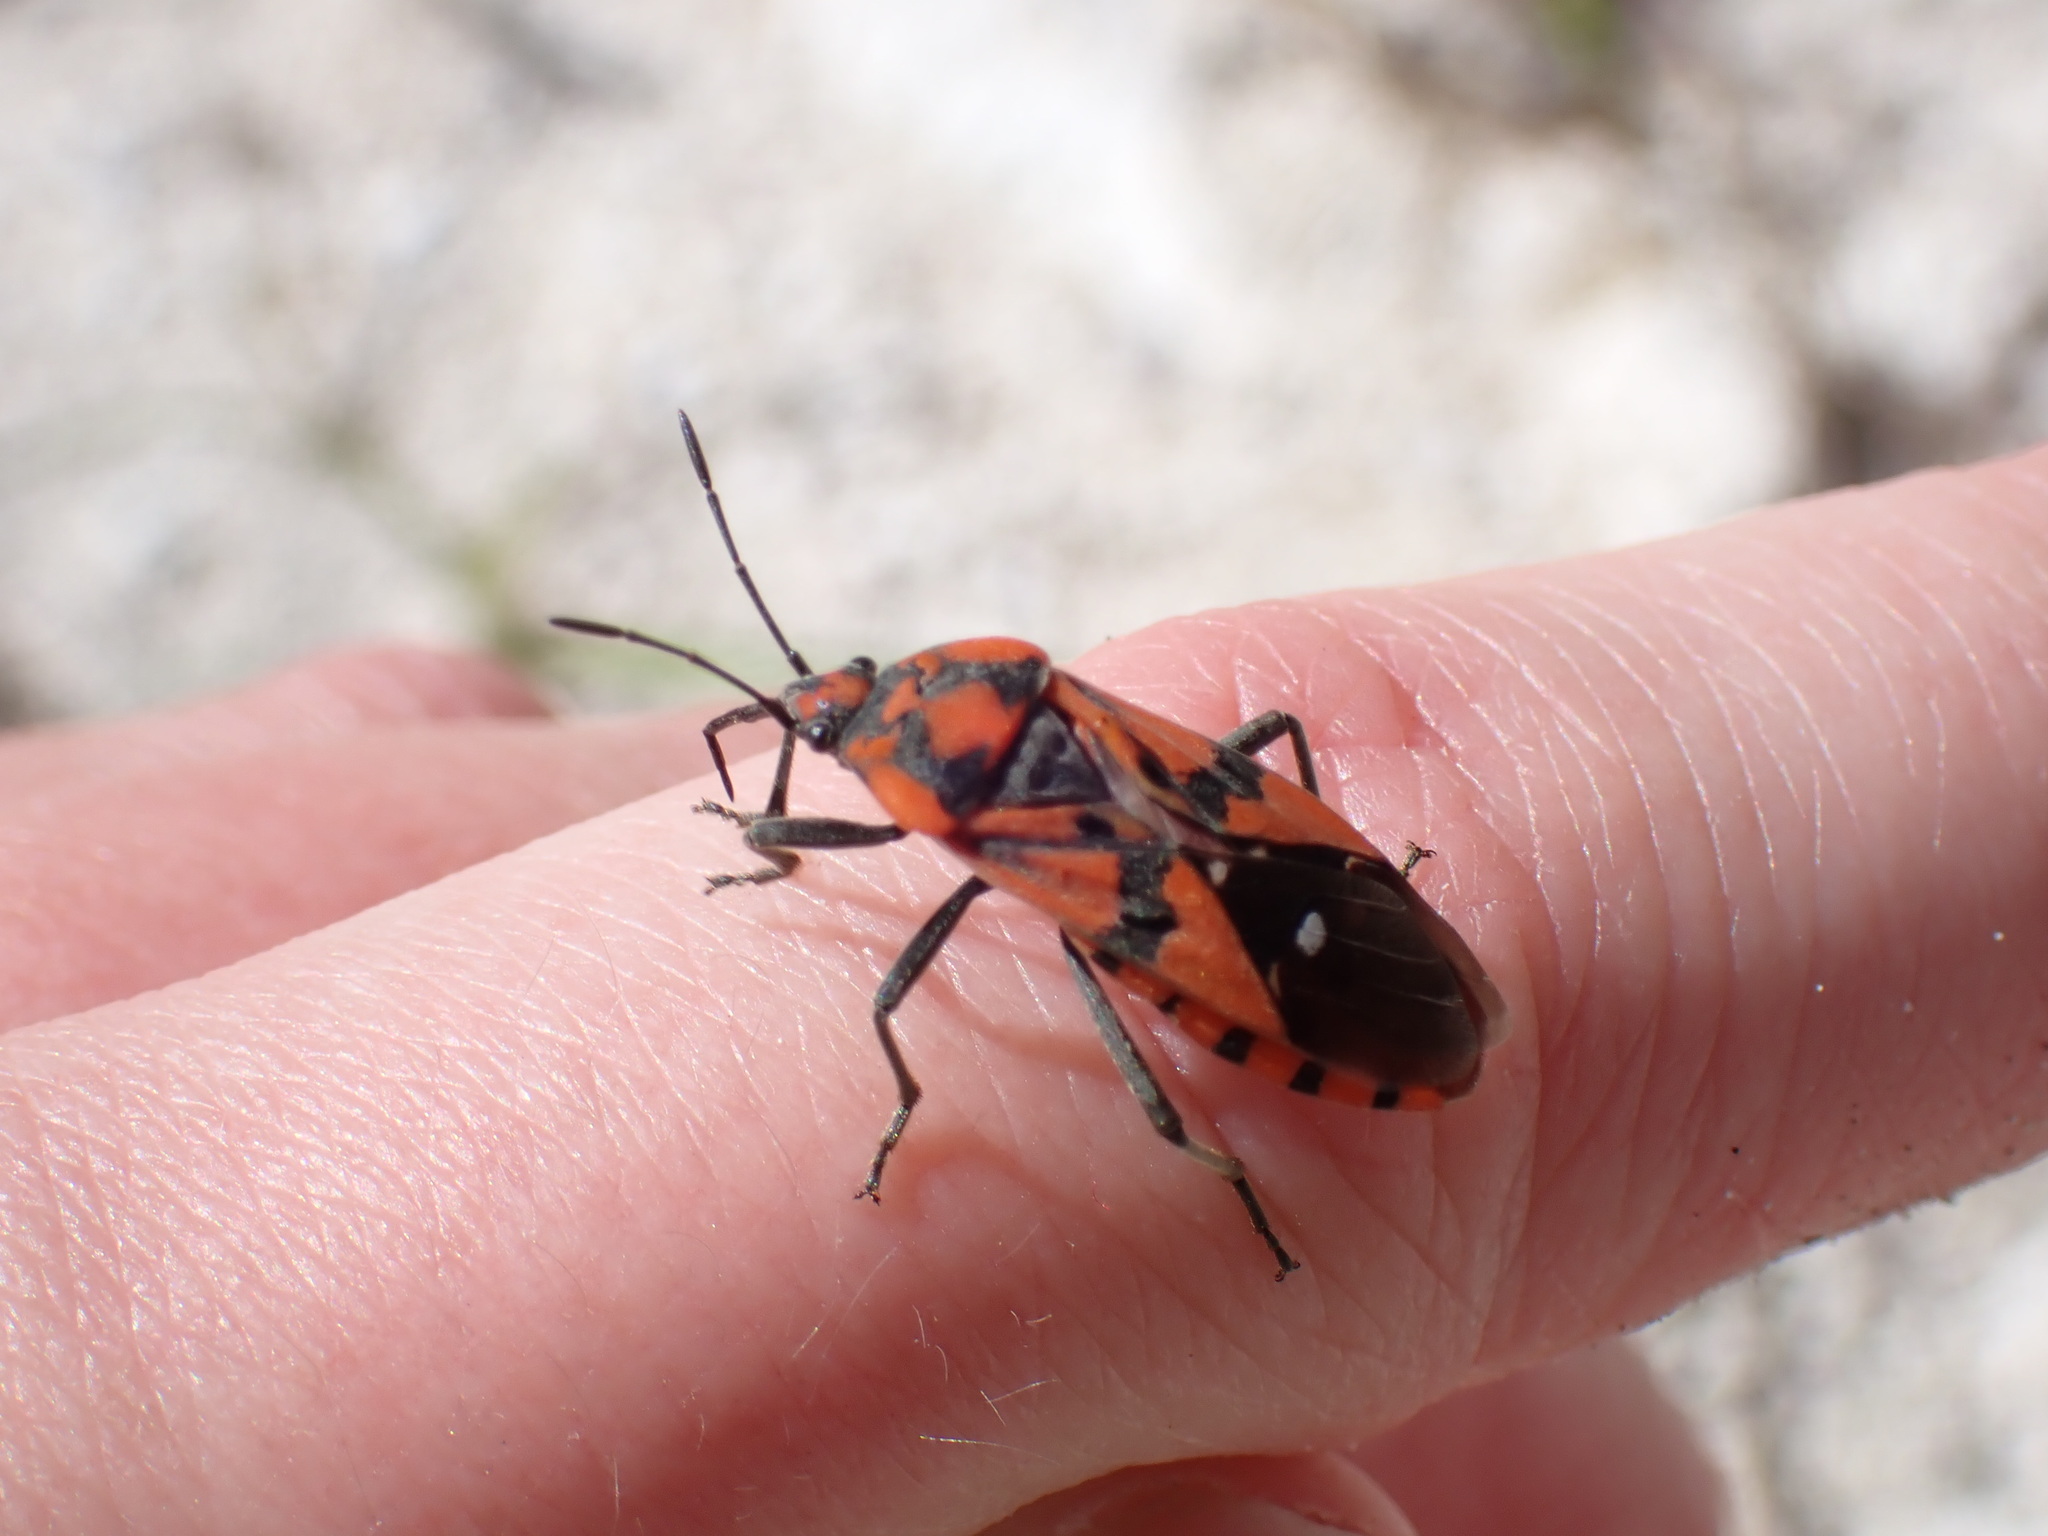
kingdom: Animalia
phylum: Arthropoda
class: Insecta
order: Hemiptera
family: Lygaeidae
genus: Spilostethus
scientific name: Spilostethus pandurus
